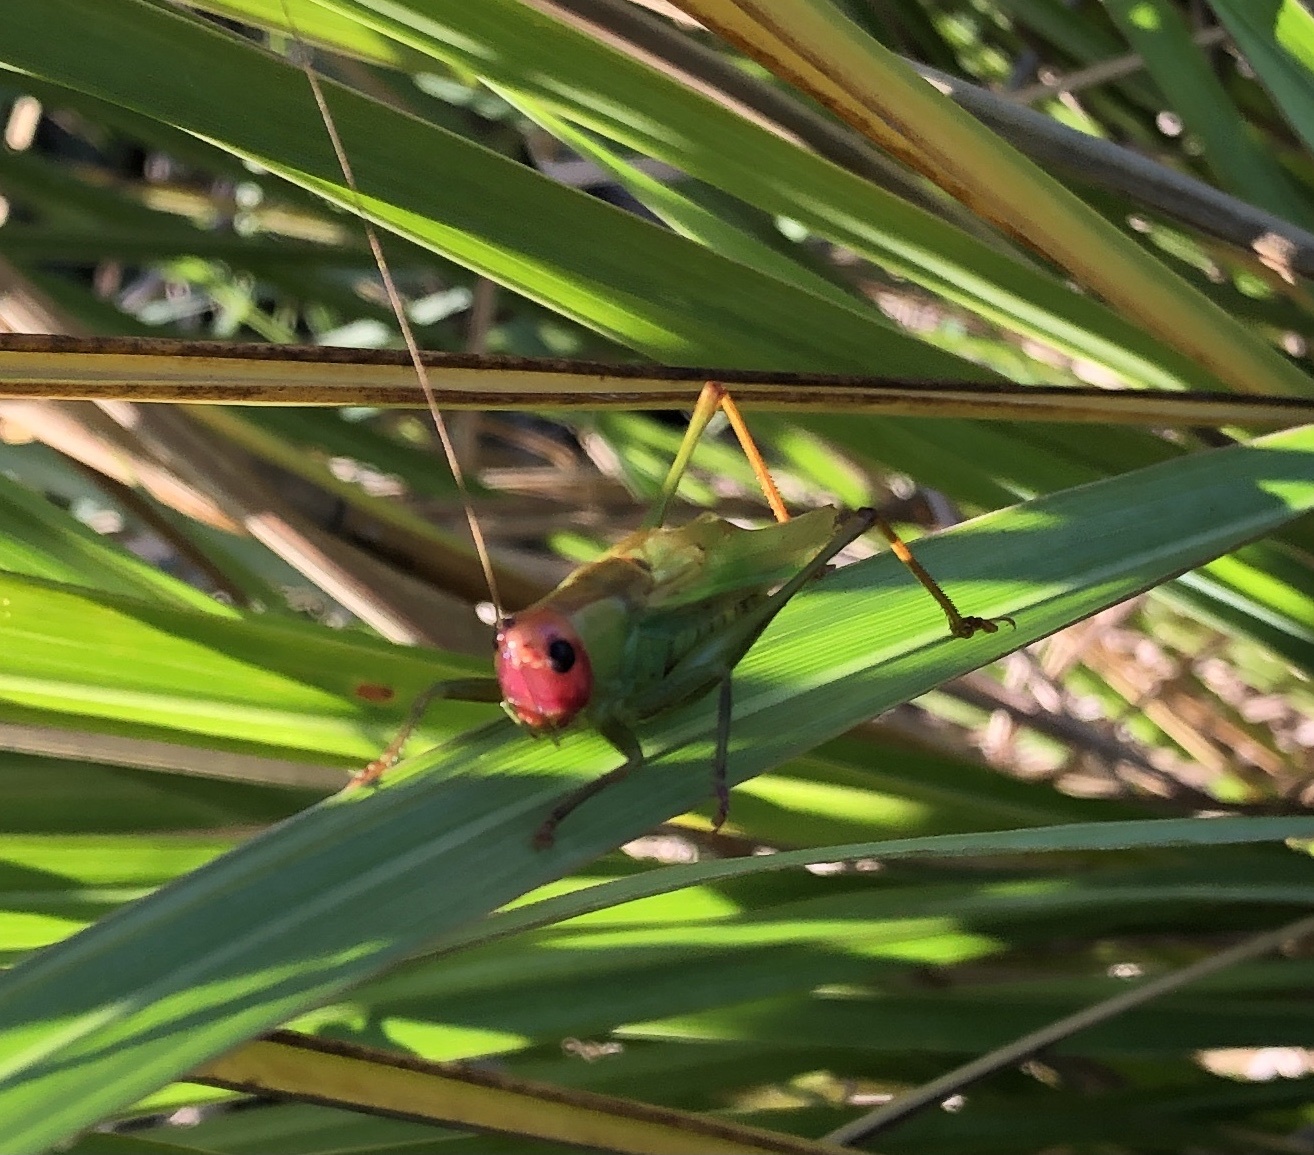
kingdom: Animalia
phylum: Arthropoda
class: Insecta
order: Orthoptera
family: Tettigoniidae
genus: Orchelimum
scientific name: Orchelimum erythrocephalum
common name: Red-headed meadow katydid
